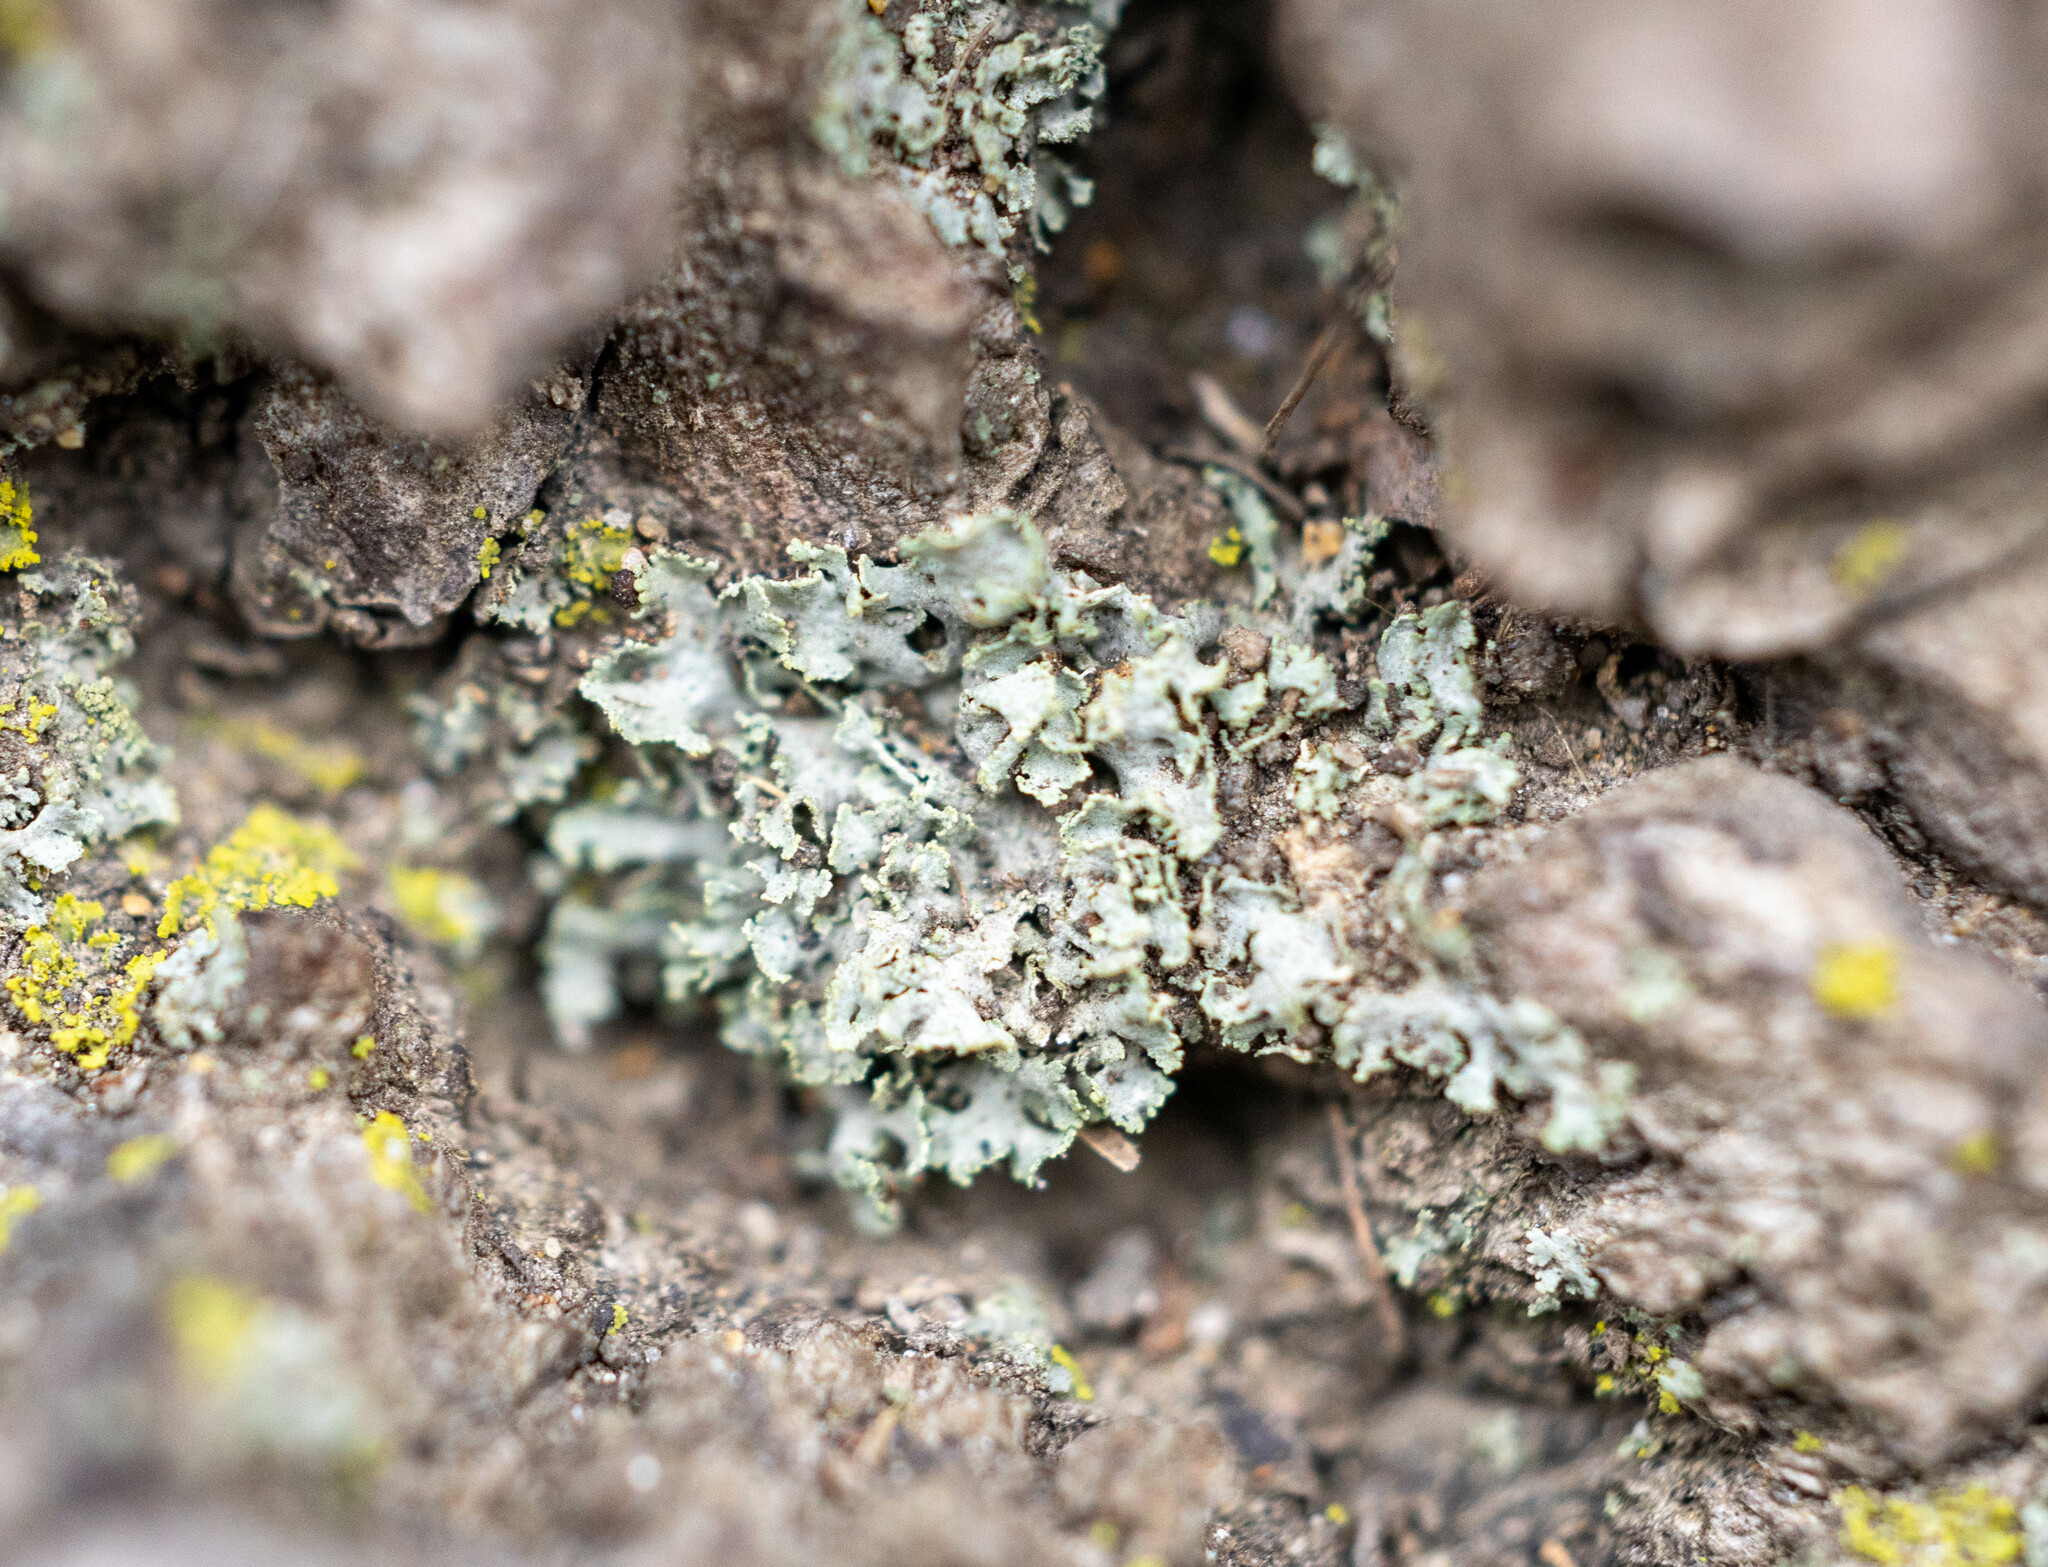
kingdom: Fungi
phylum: Ascomycota
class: Lecanoromycetes
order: Caliciales
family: Physciaceae
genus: Physcia
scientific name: Physcia millegrana
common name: Rosette lichen
